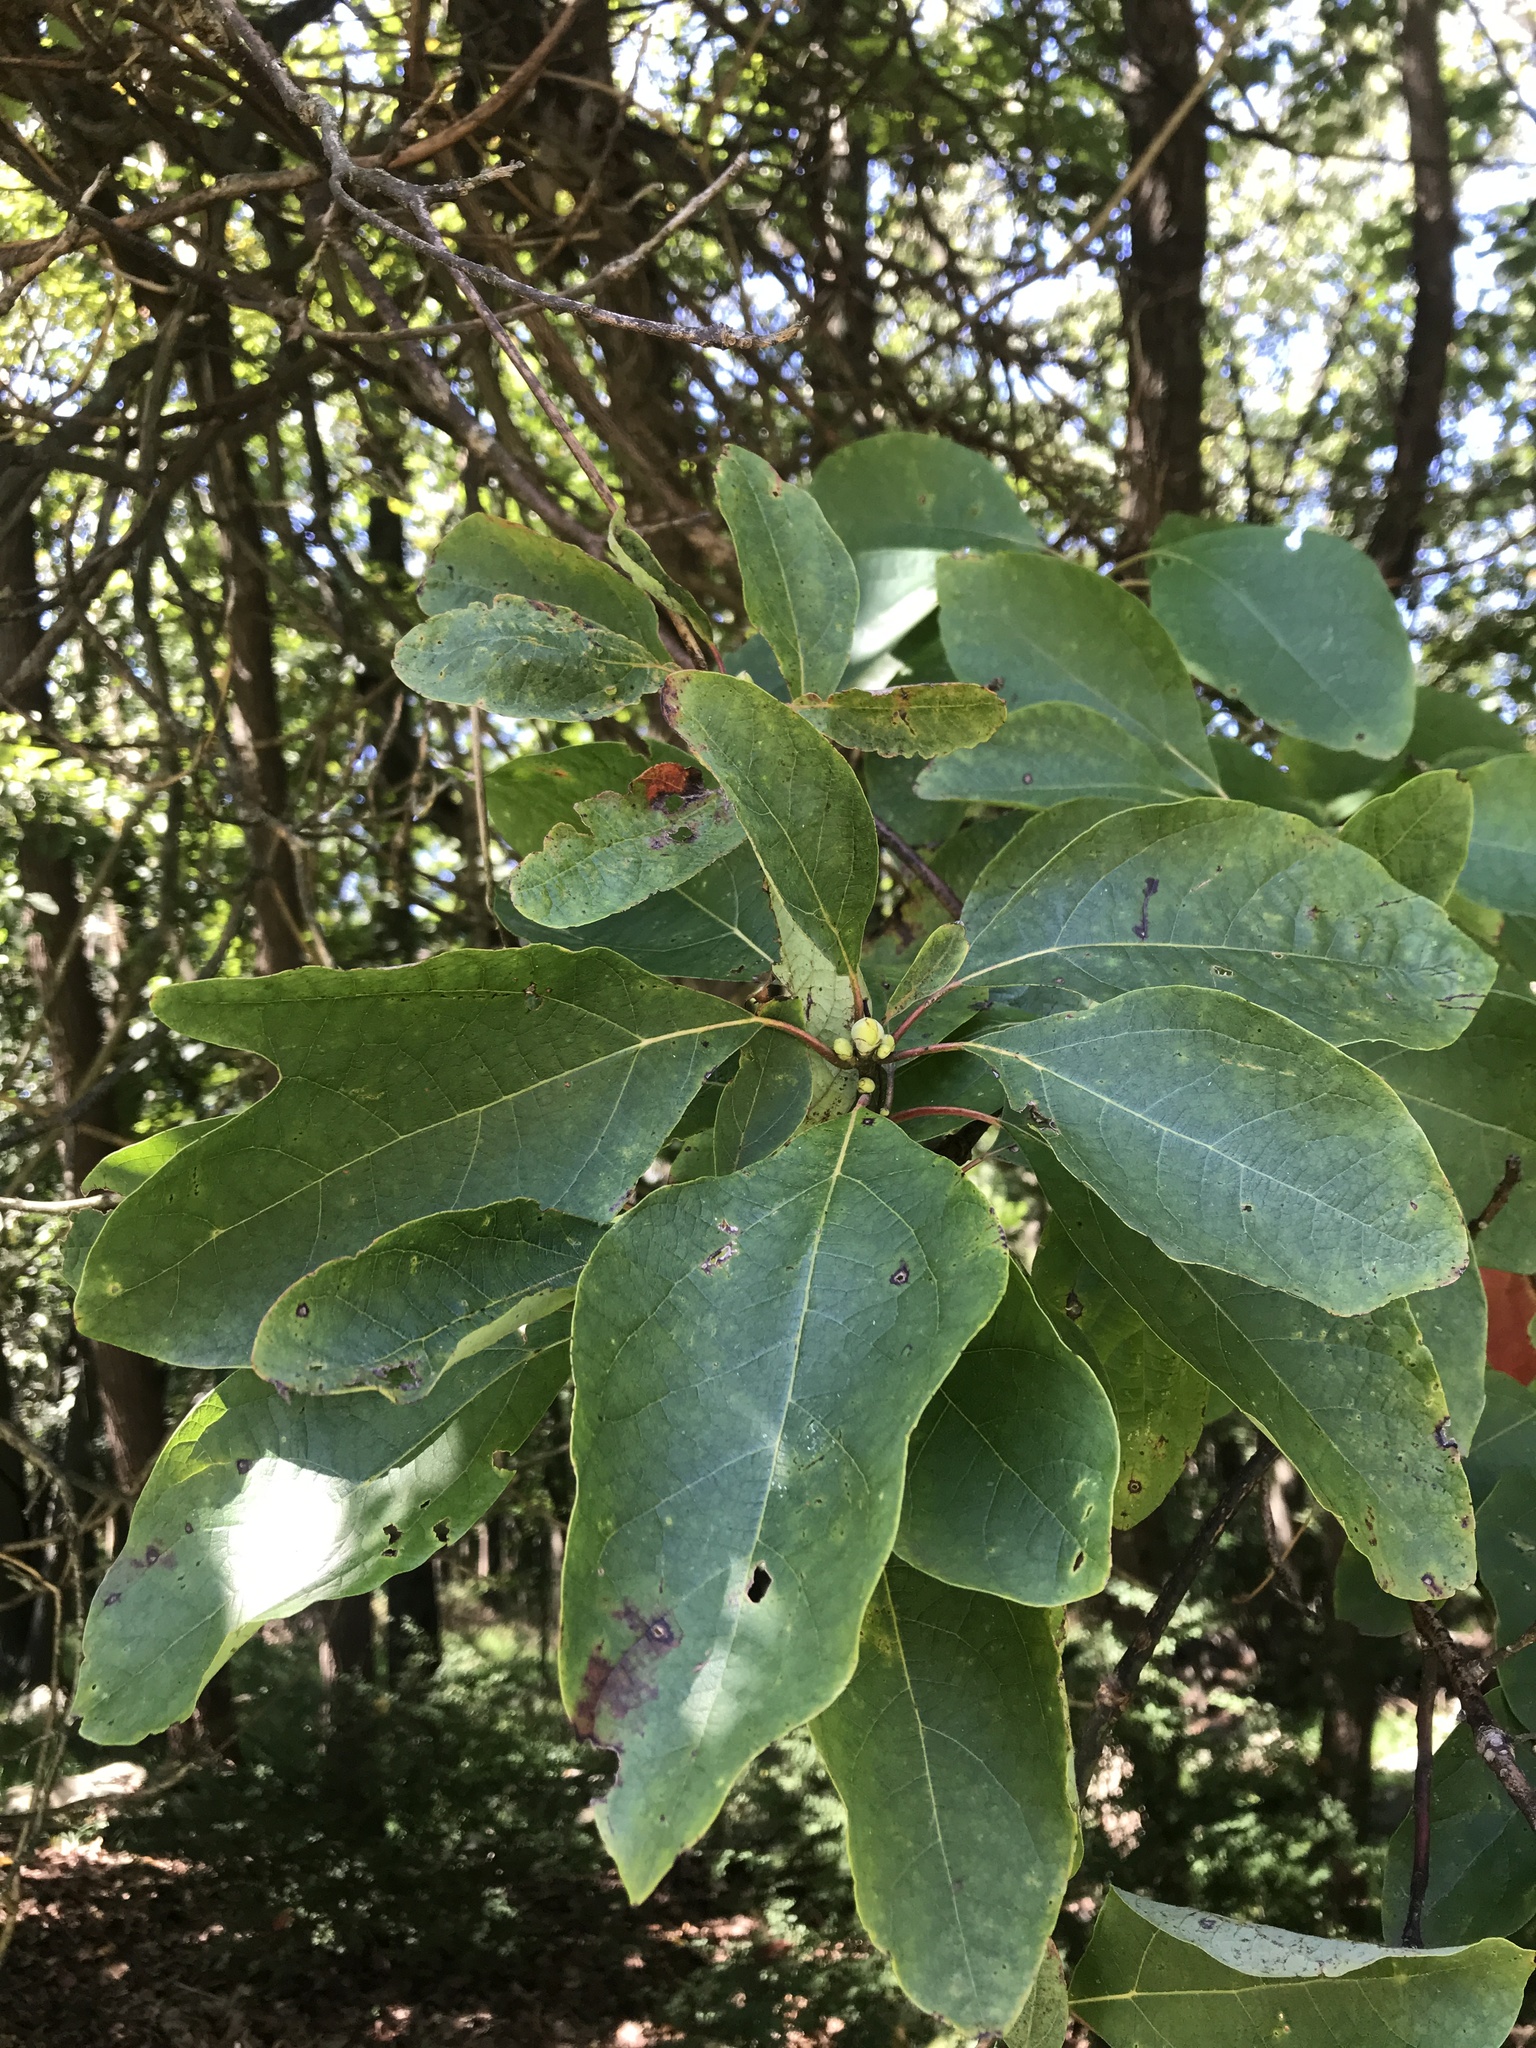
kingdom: Plantae
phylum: Tracheophyta
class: Magnoliopsida
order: Laurales
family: Lauraceae
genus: Sassafras
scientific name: Sassafras albidum
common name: Sassafras
